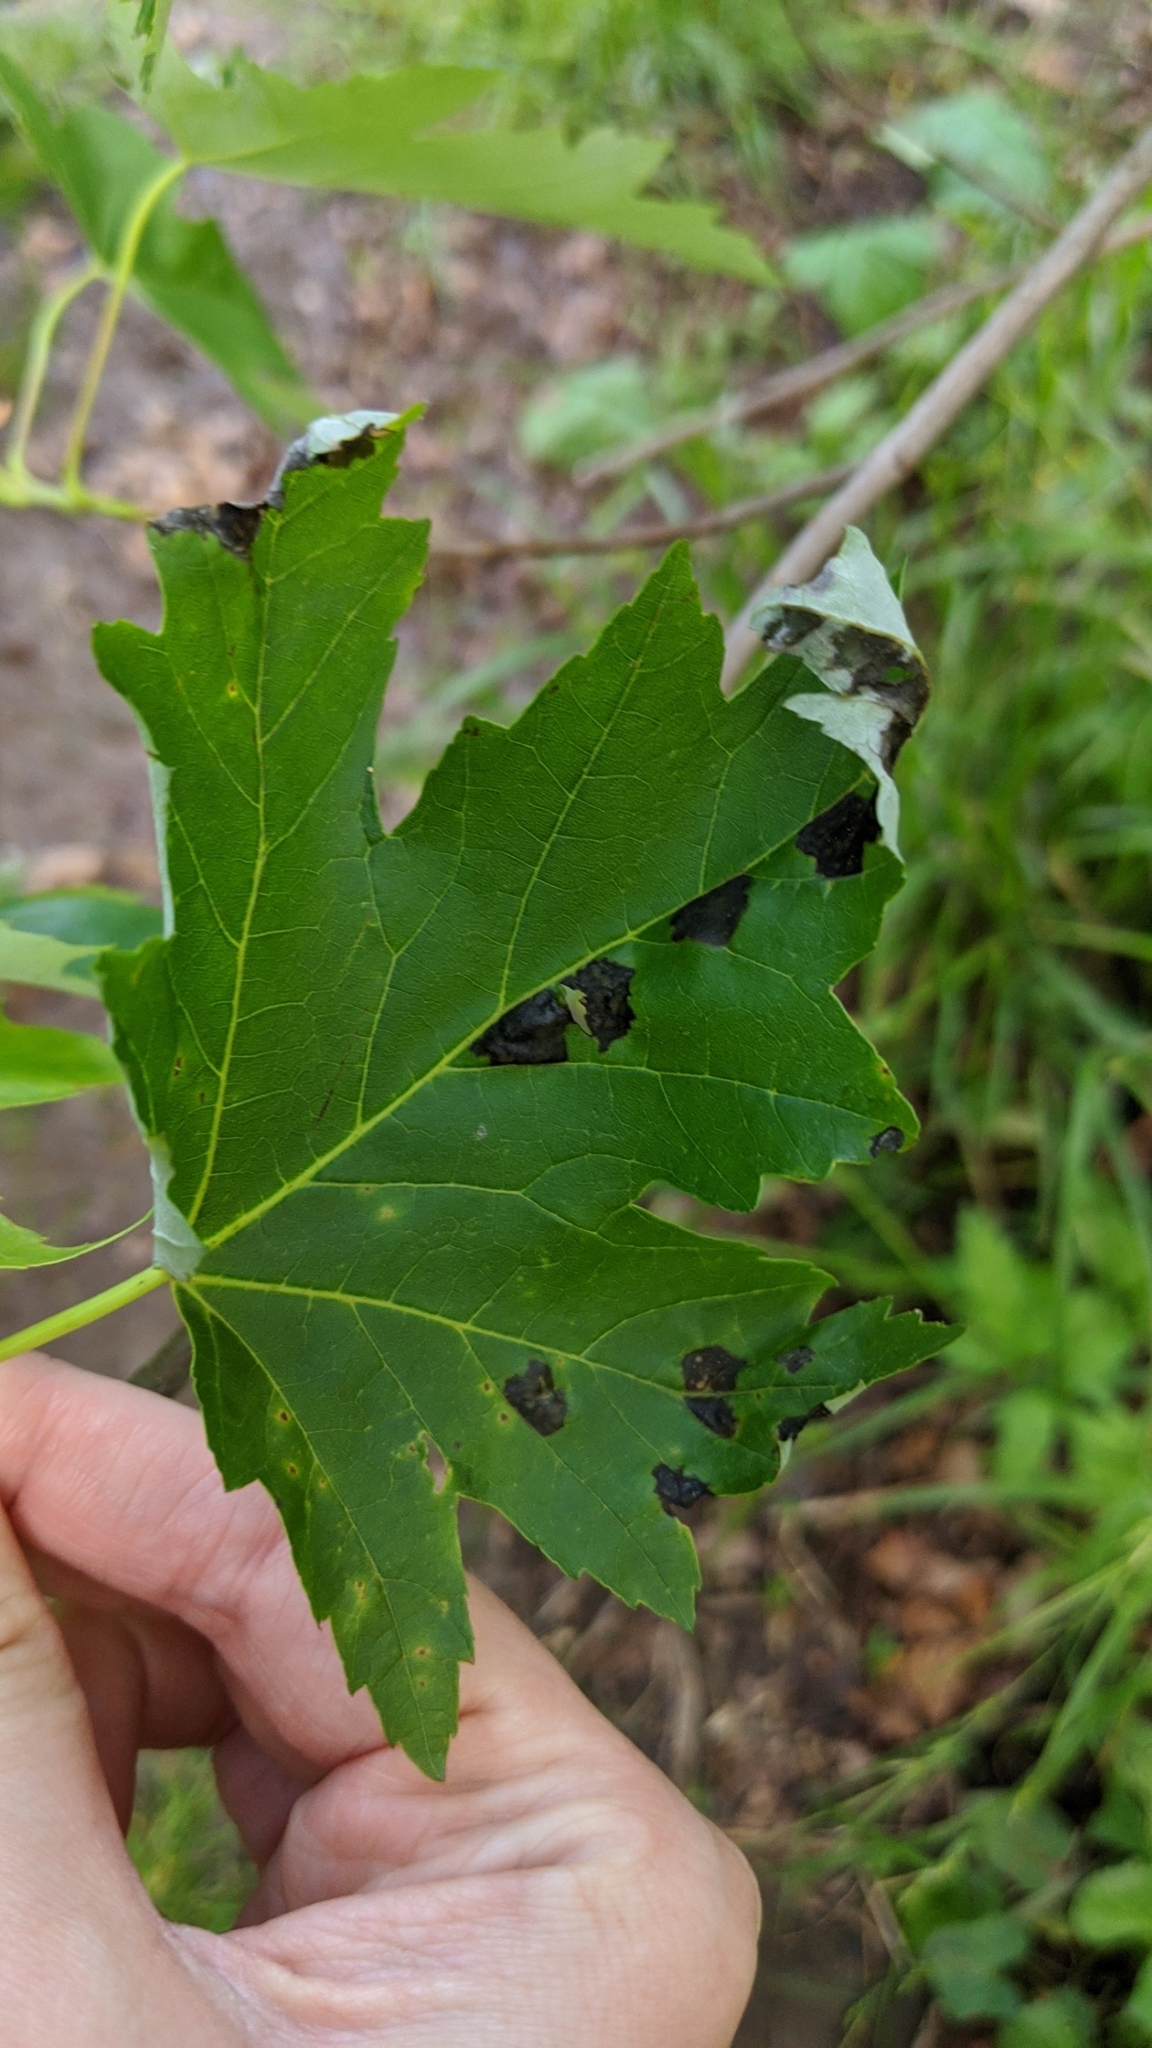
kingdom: Fungi
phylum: Ascomycota
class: Leotiomycetes
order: Rhytismatales
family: Rhytismataceae
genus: Rhytisma
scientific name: Rhytisma
